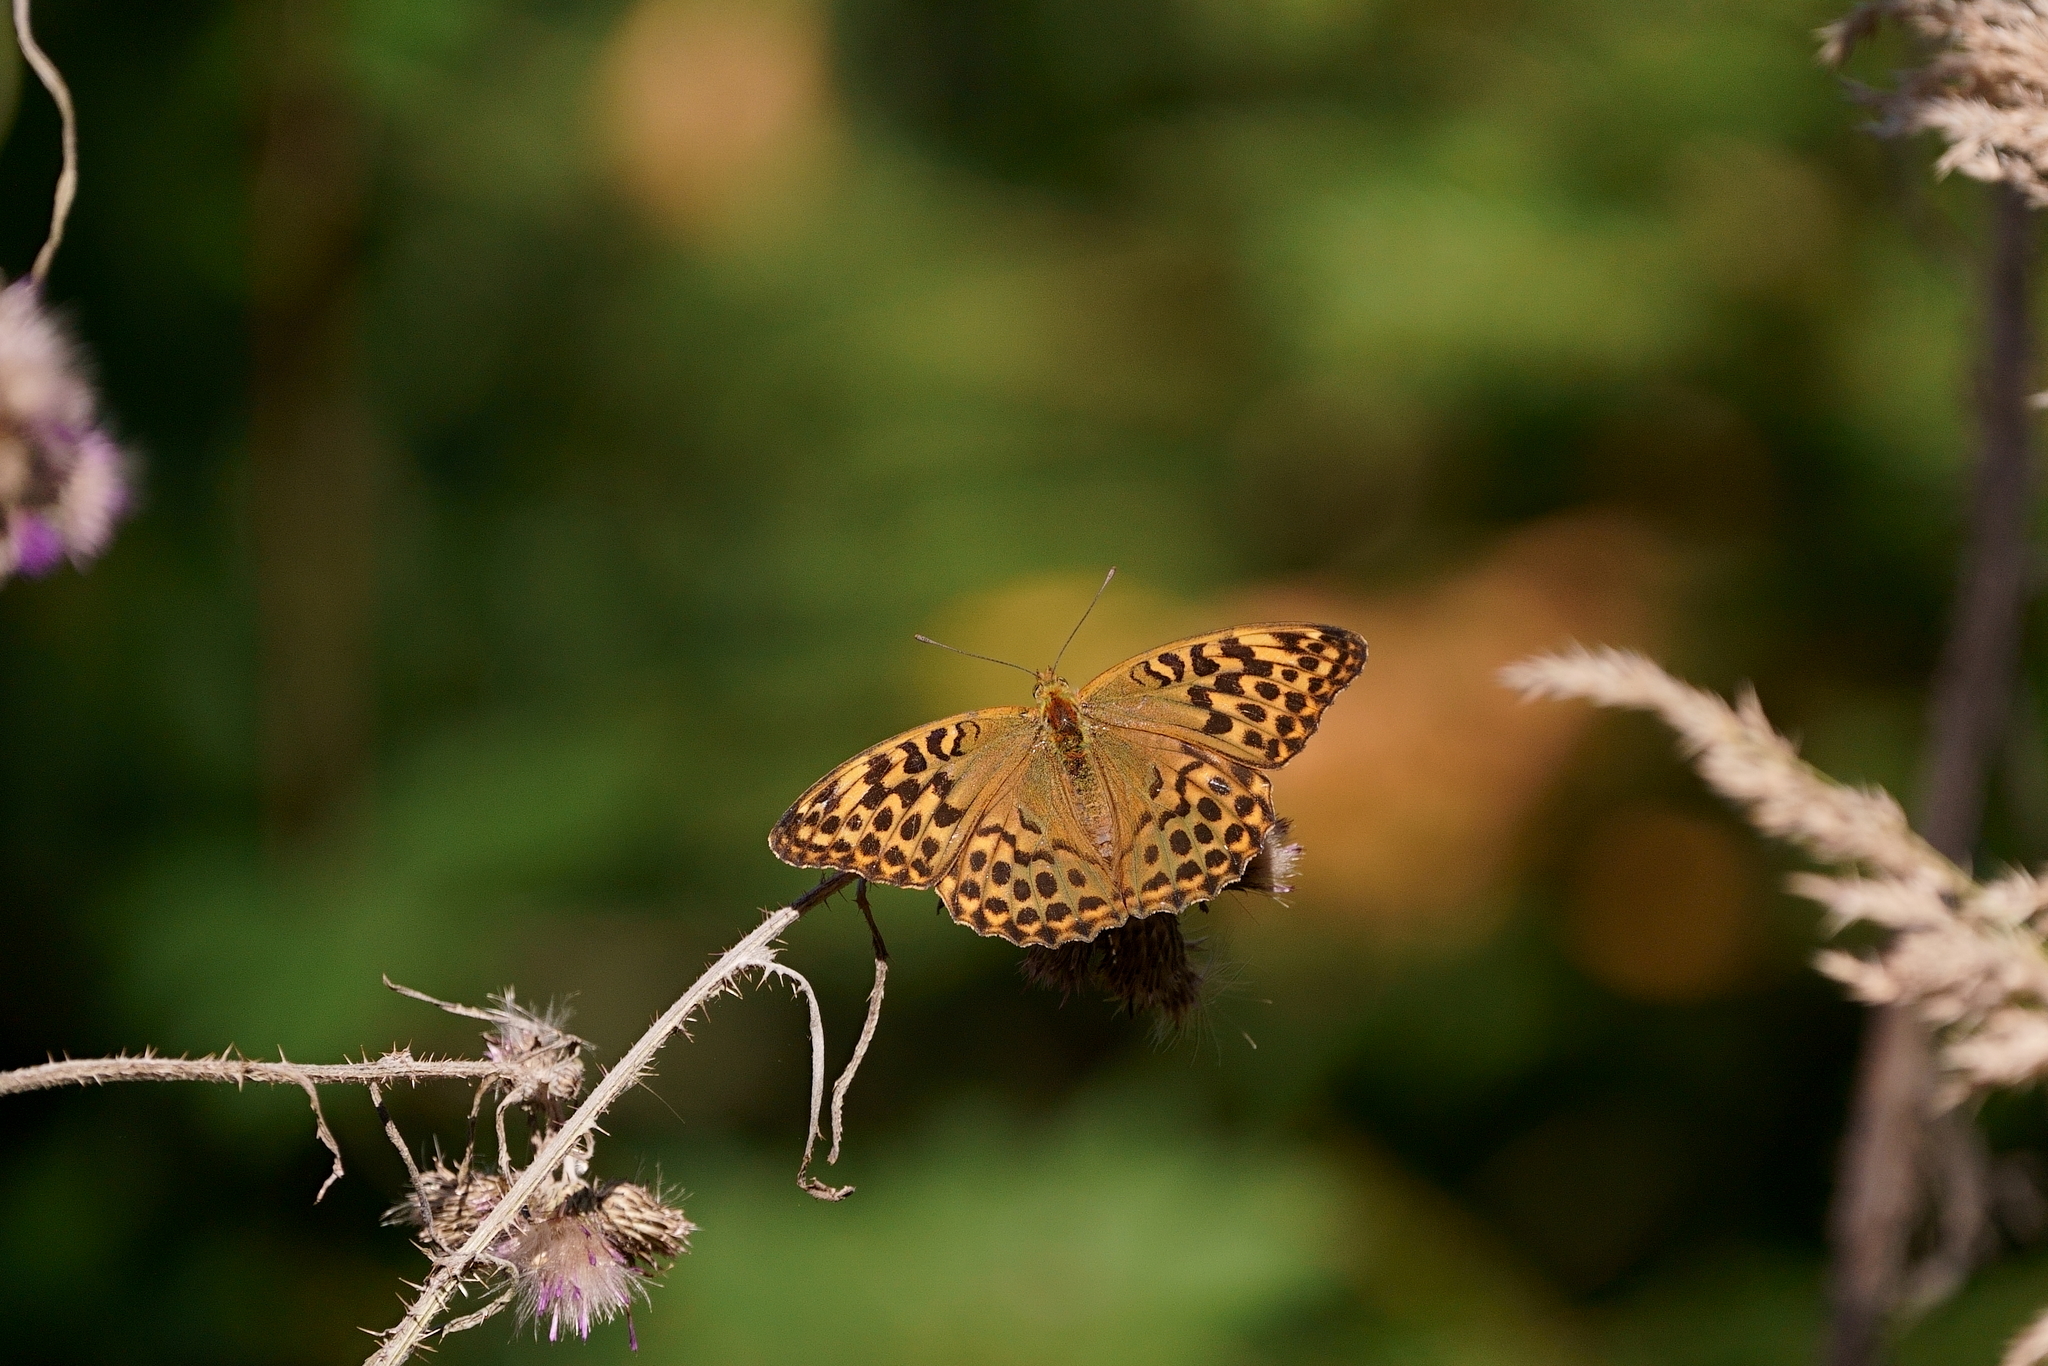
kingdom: Animalia
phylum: Arthropoda
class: Insecta
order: Lepidoptera
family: Nymphalidae
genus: Argynnis
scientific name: Argynnis paphia
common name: Silver-washed fritillary
